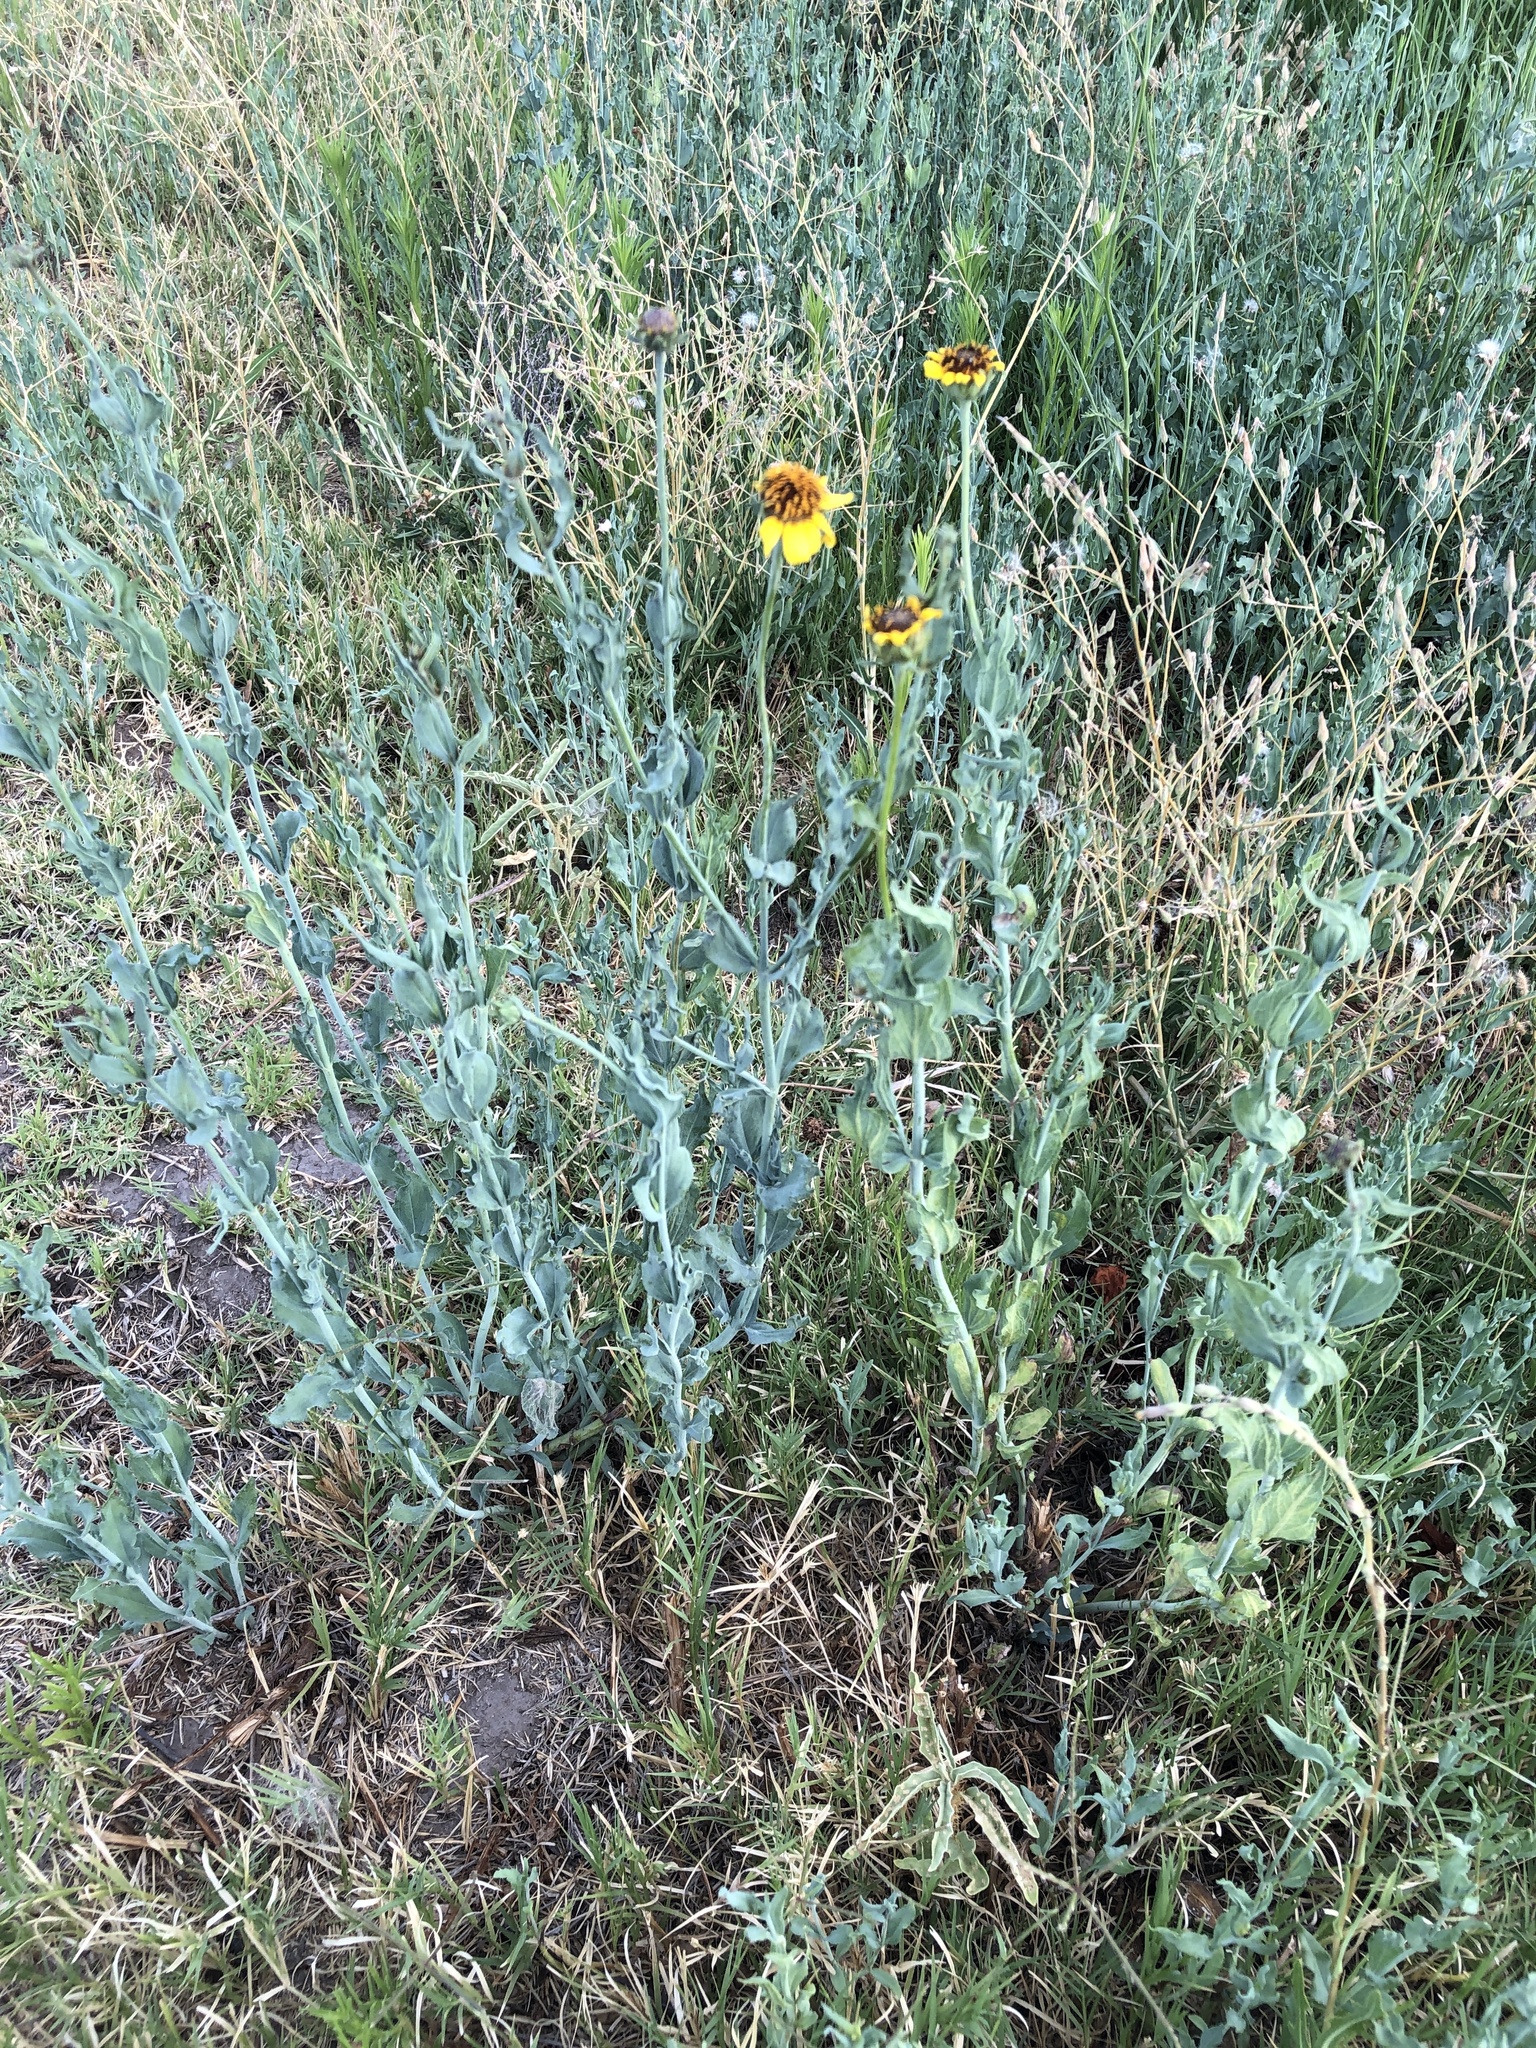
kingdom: Plantae
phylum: Tracheophyta
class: Magnoliopsida
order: Asterales
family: Asteraceae
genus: Helianthus
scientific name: Helianthus ciliaris
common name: Texas blueweed
